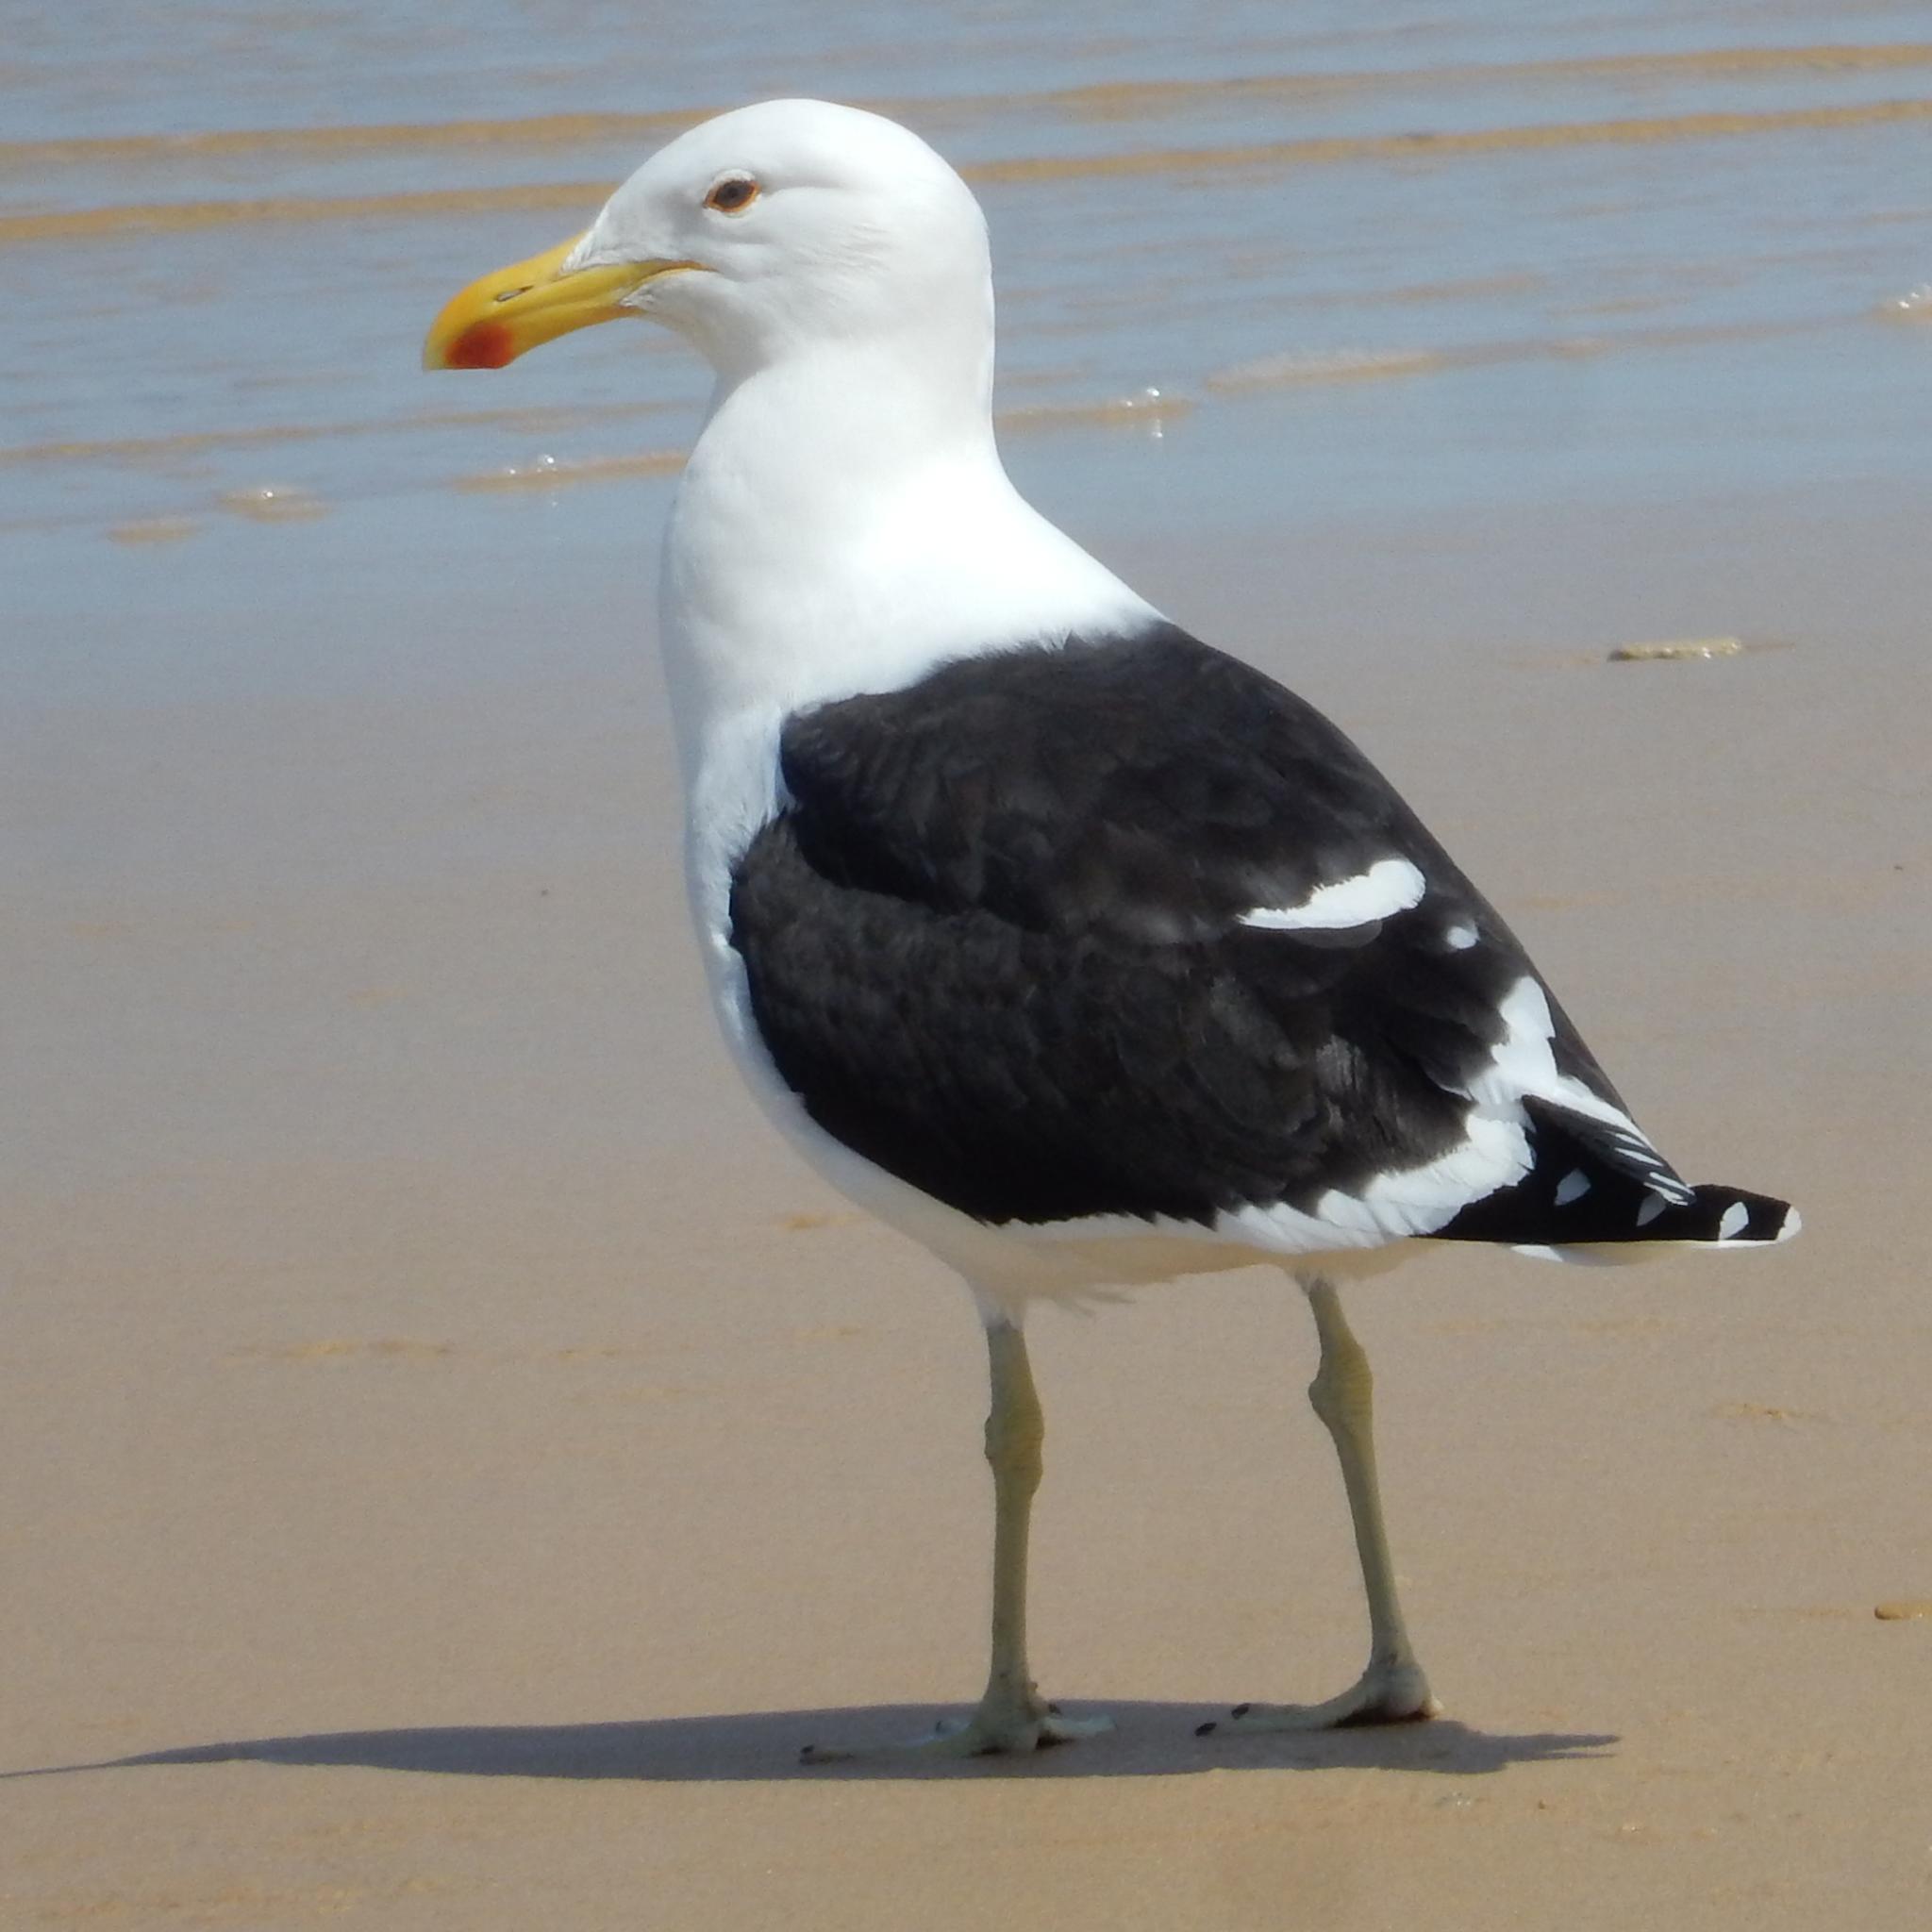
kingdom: Animalia
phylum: Chordata
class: Aves
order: Charadriiformes
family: Laridae
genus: Larus
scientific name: Larus dominicanus
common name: Kelp gull
